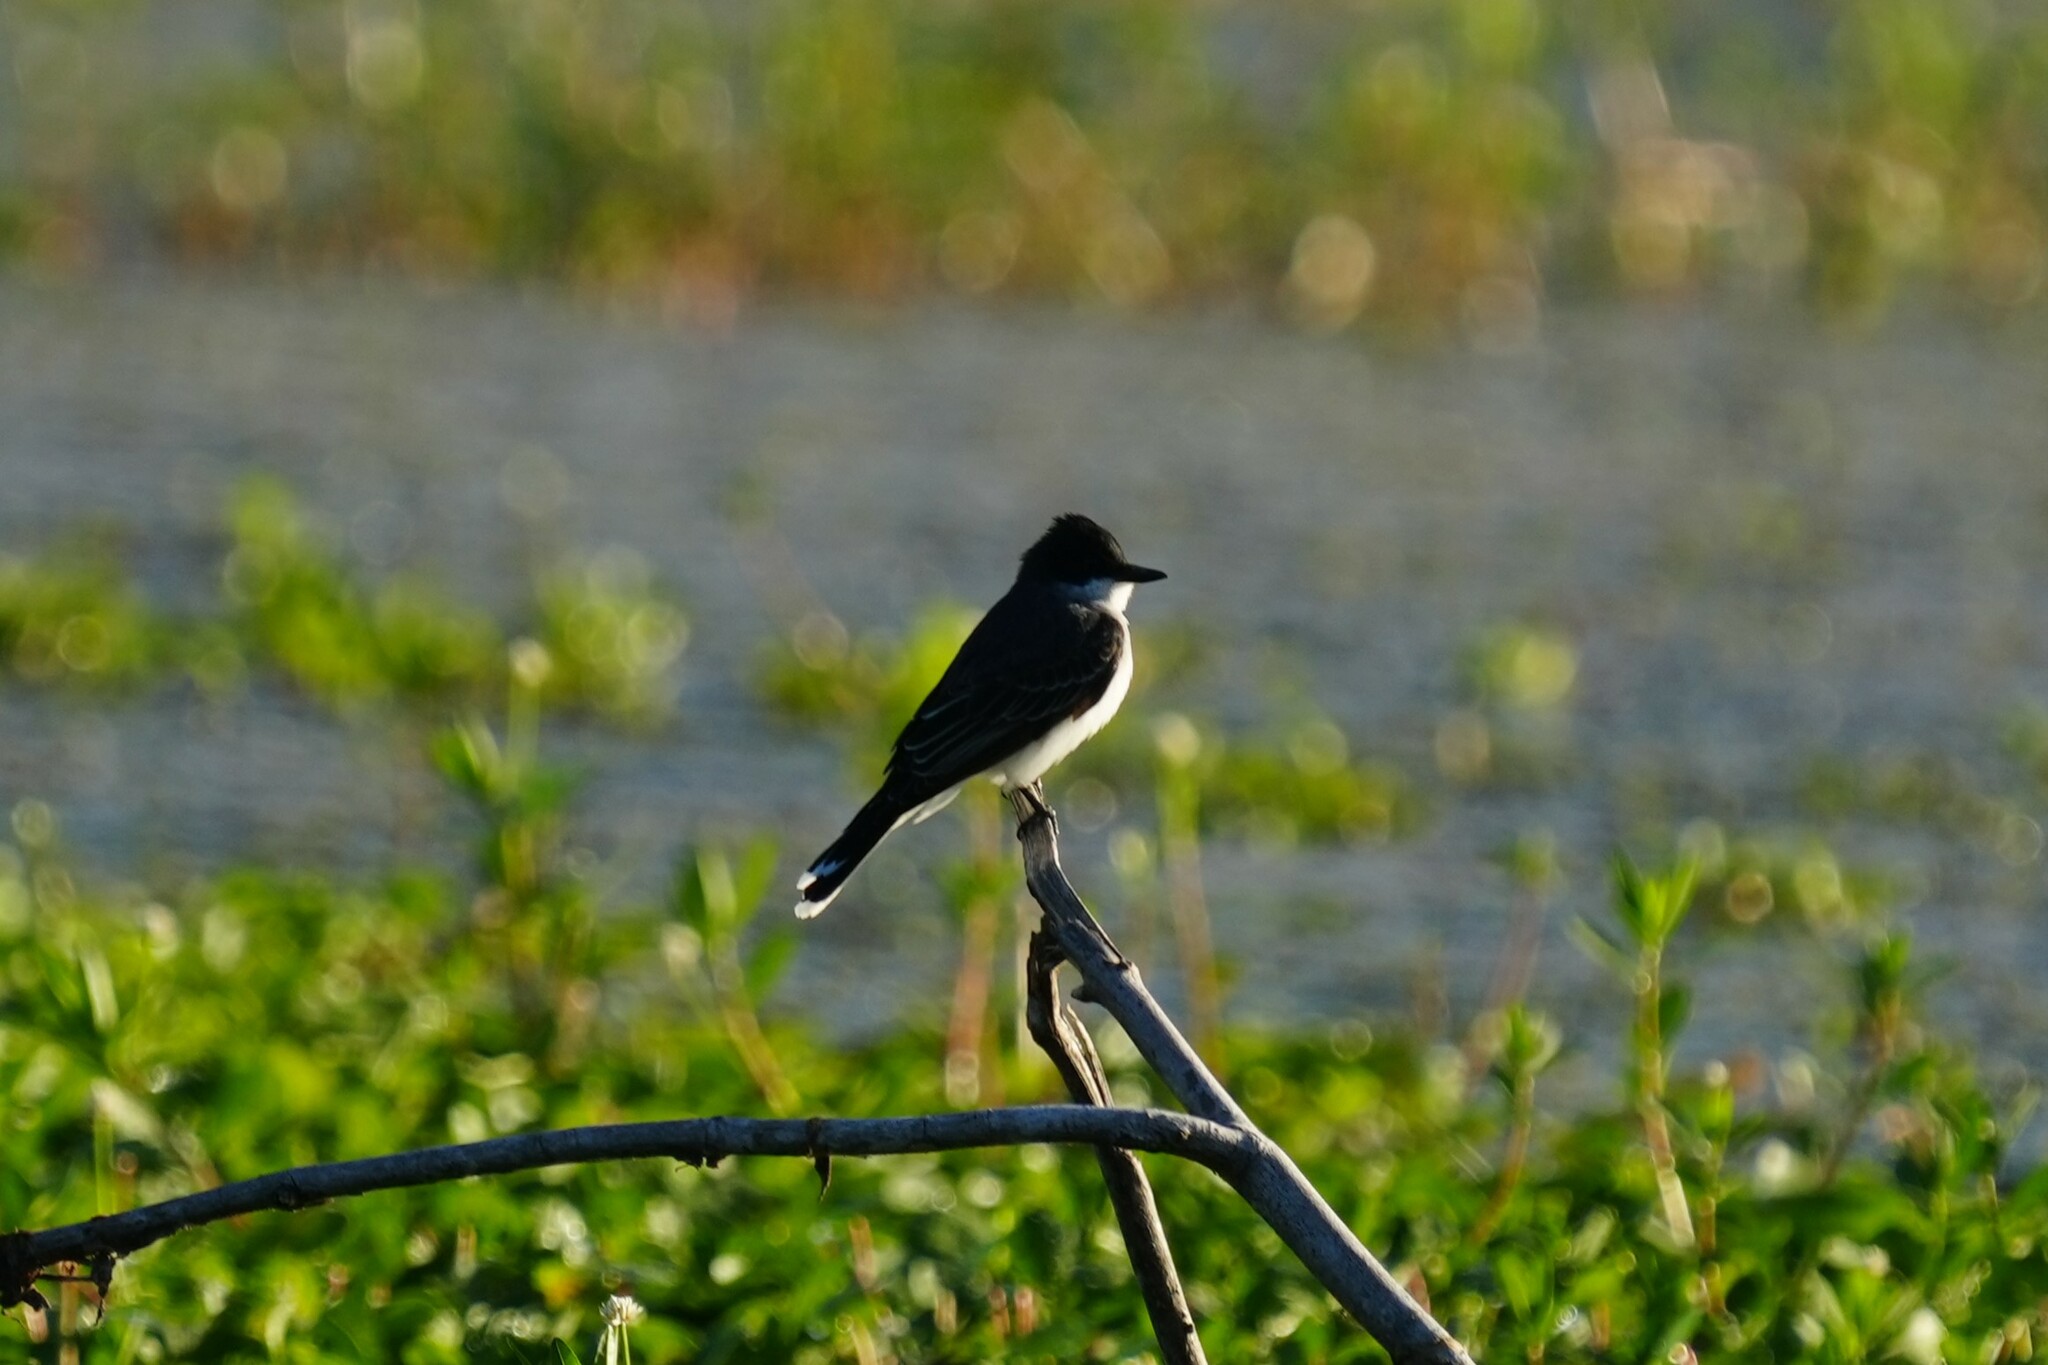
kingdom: Animalia
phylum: Chordata
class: Aves
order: Passeriformes
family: Tyrannidae
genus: Tyrannus
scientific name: Tyrannus tyrannus
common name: Eastern kingbird
